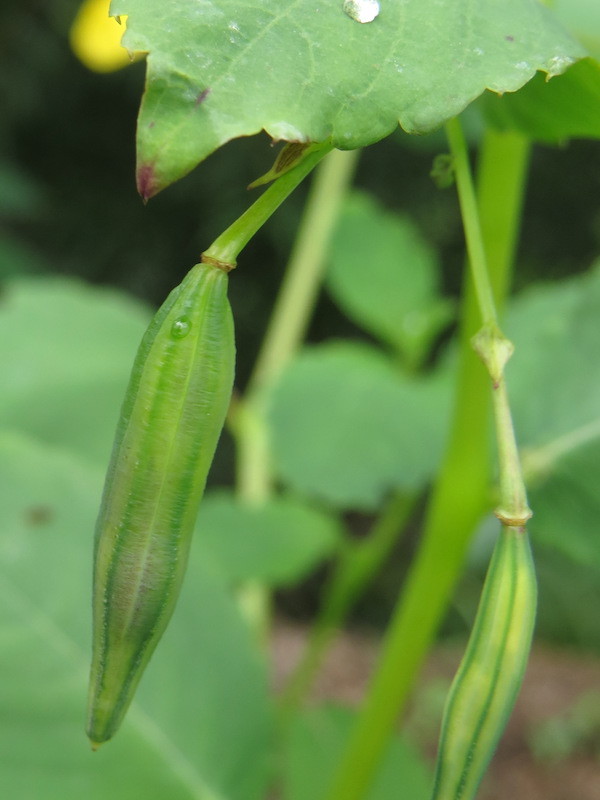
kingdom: Plantae
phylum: Tracheophyta
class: Magnoliopsida
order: Ericales
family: Balsaminaceae
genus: Impatiens
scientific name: Impatiens pallida
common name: Pale snapweed
